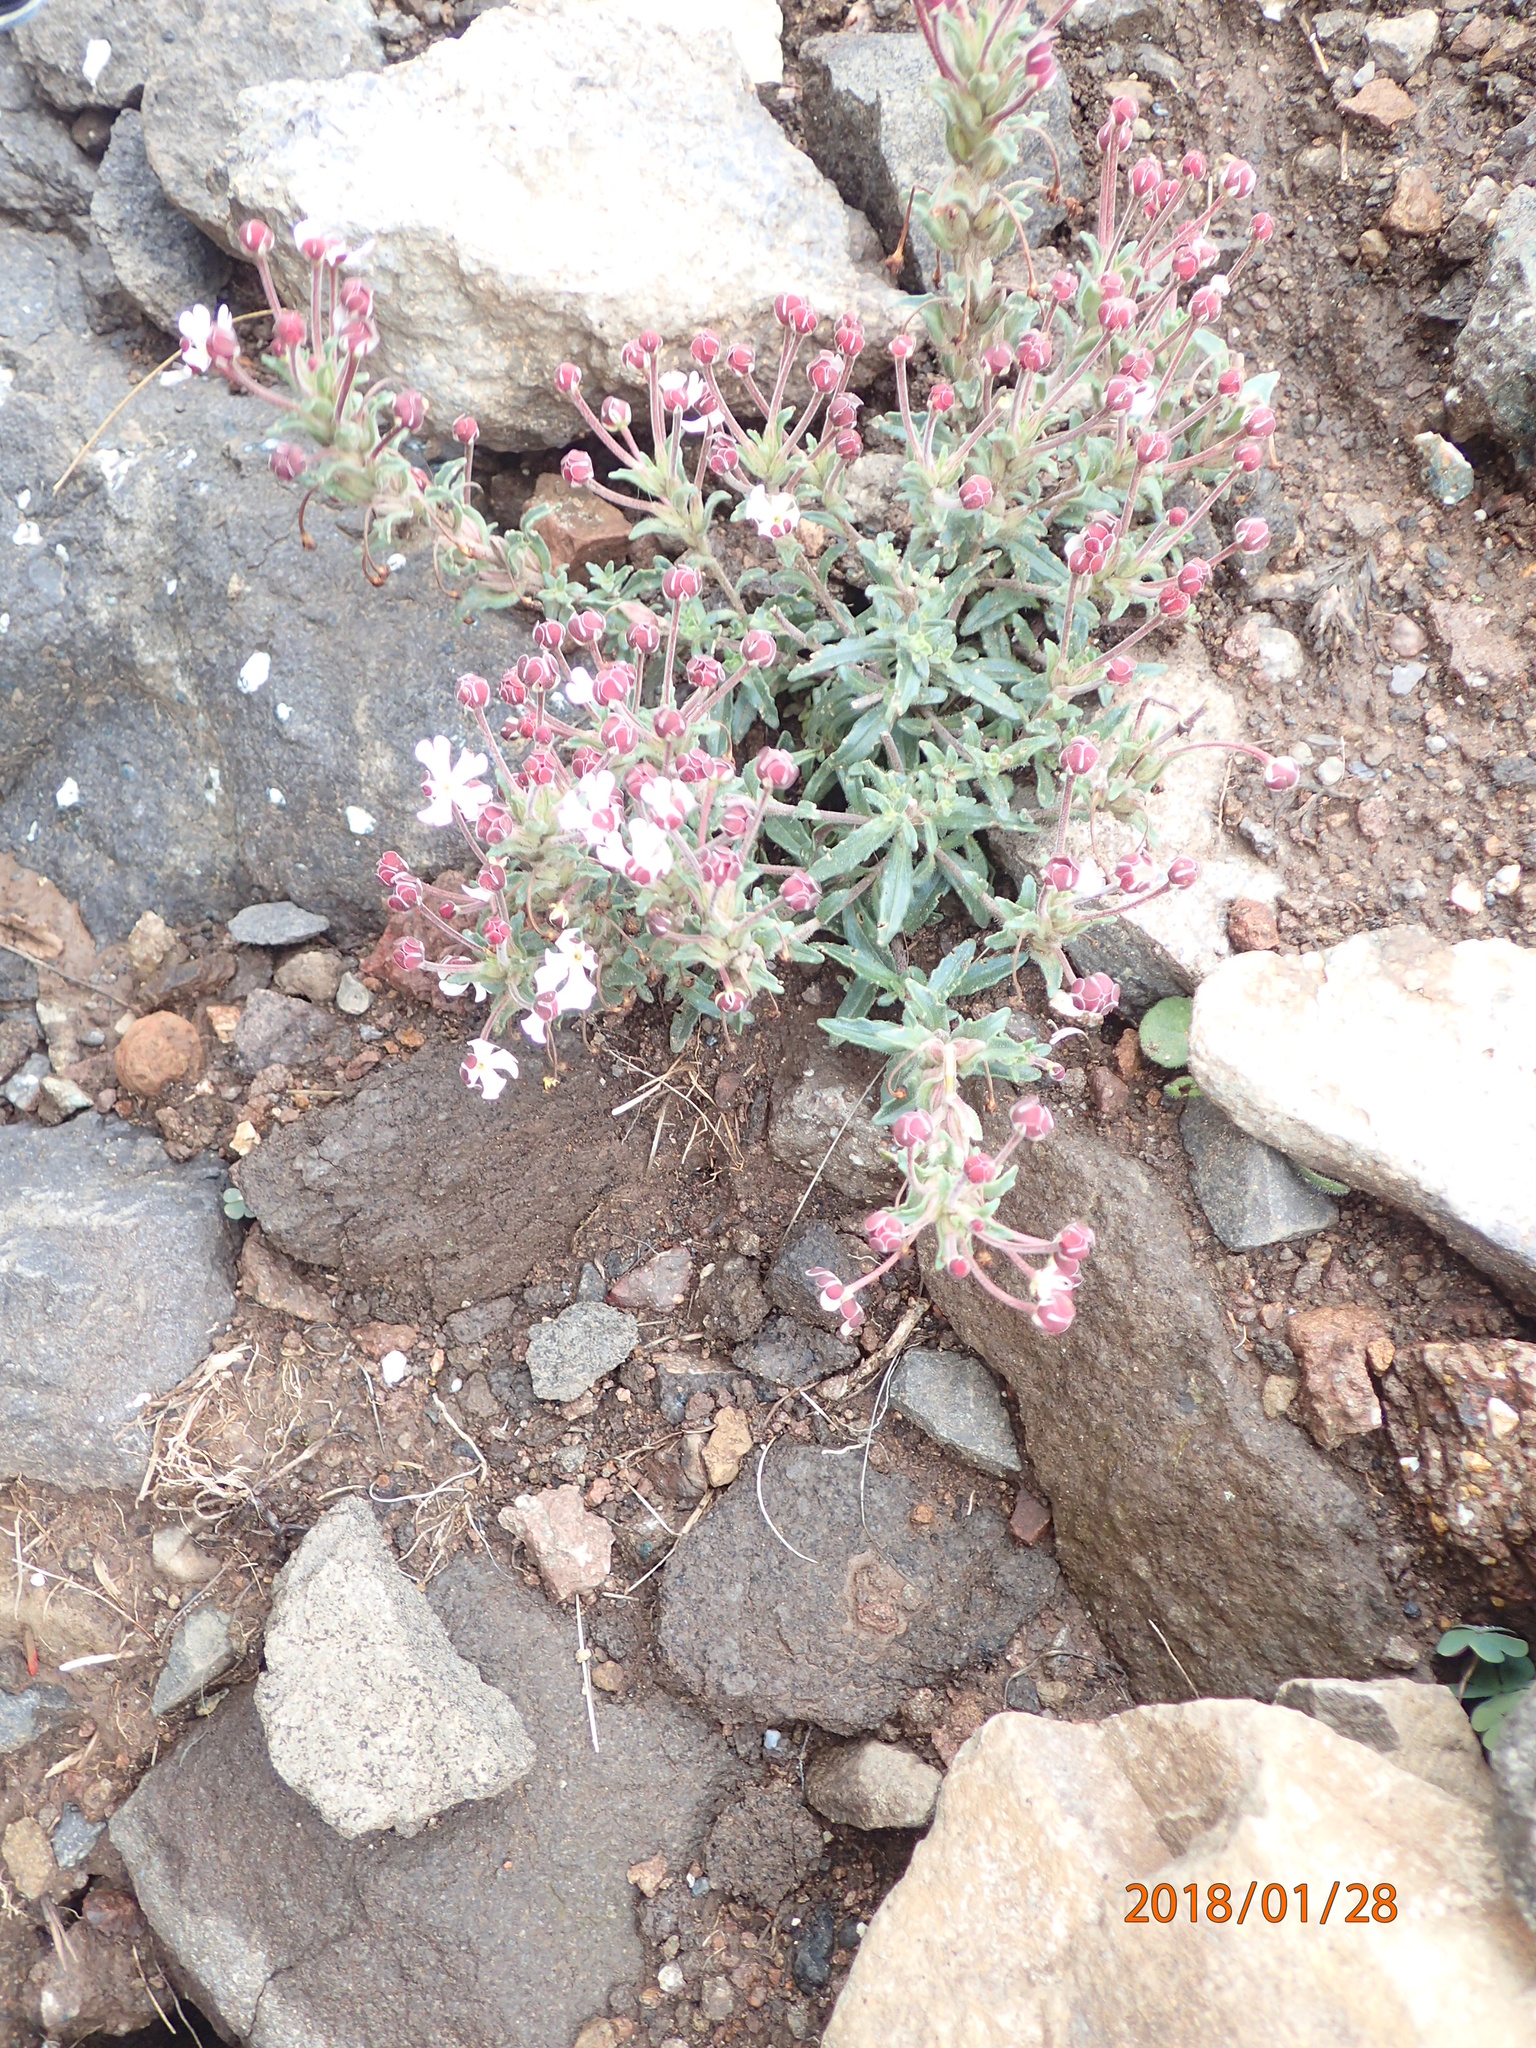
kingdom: Plantae
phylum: Tracheophyta
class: Magnoliopsida
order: Lamiales
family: Scrophulariaceae
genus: Zaluzianskya
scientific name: Zaluzianskya pulvinata
